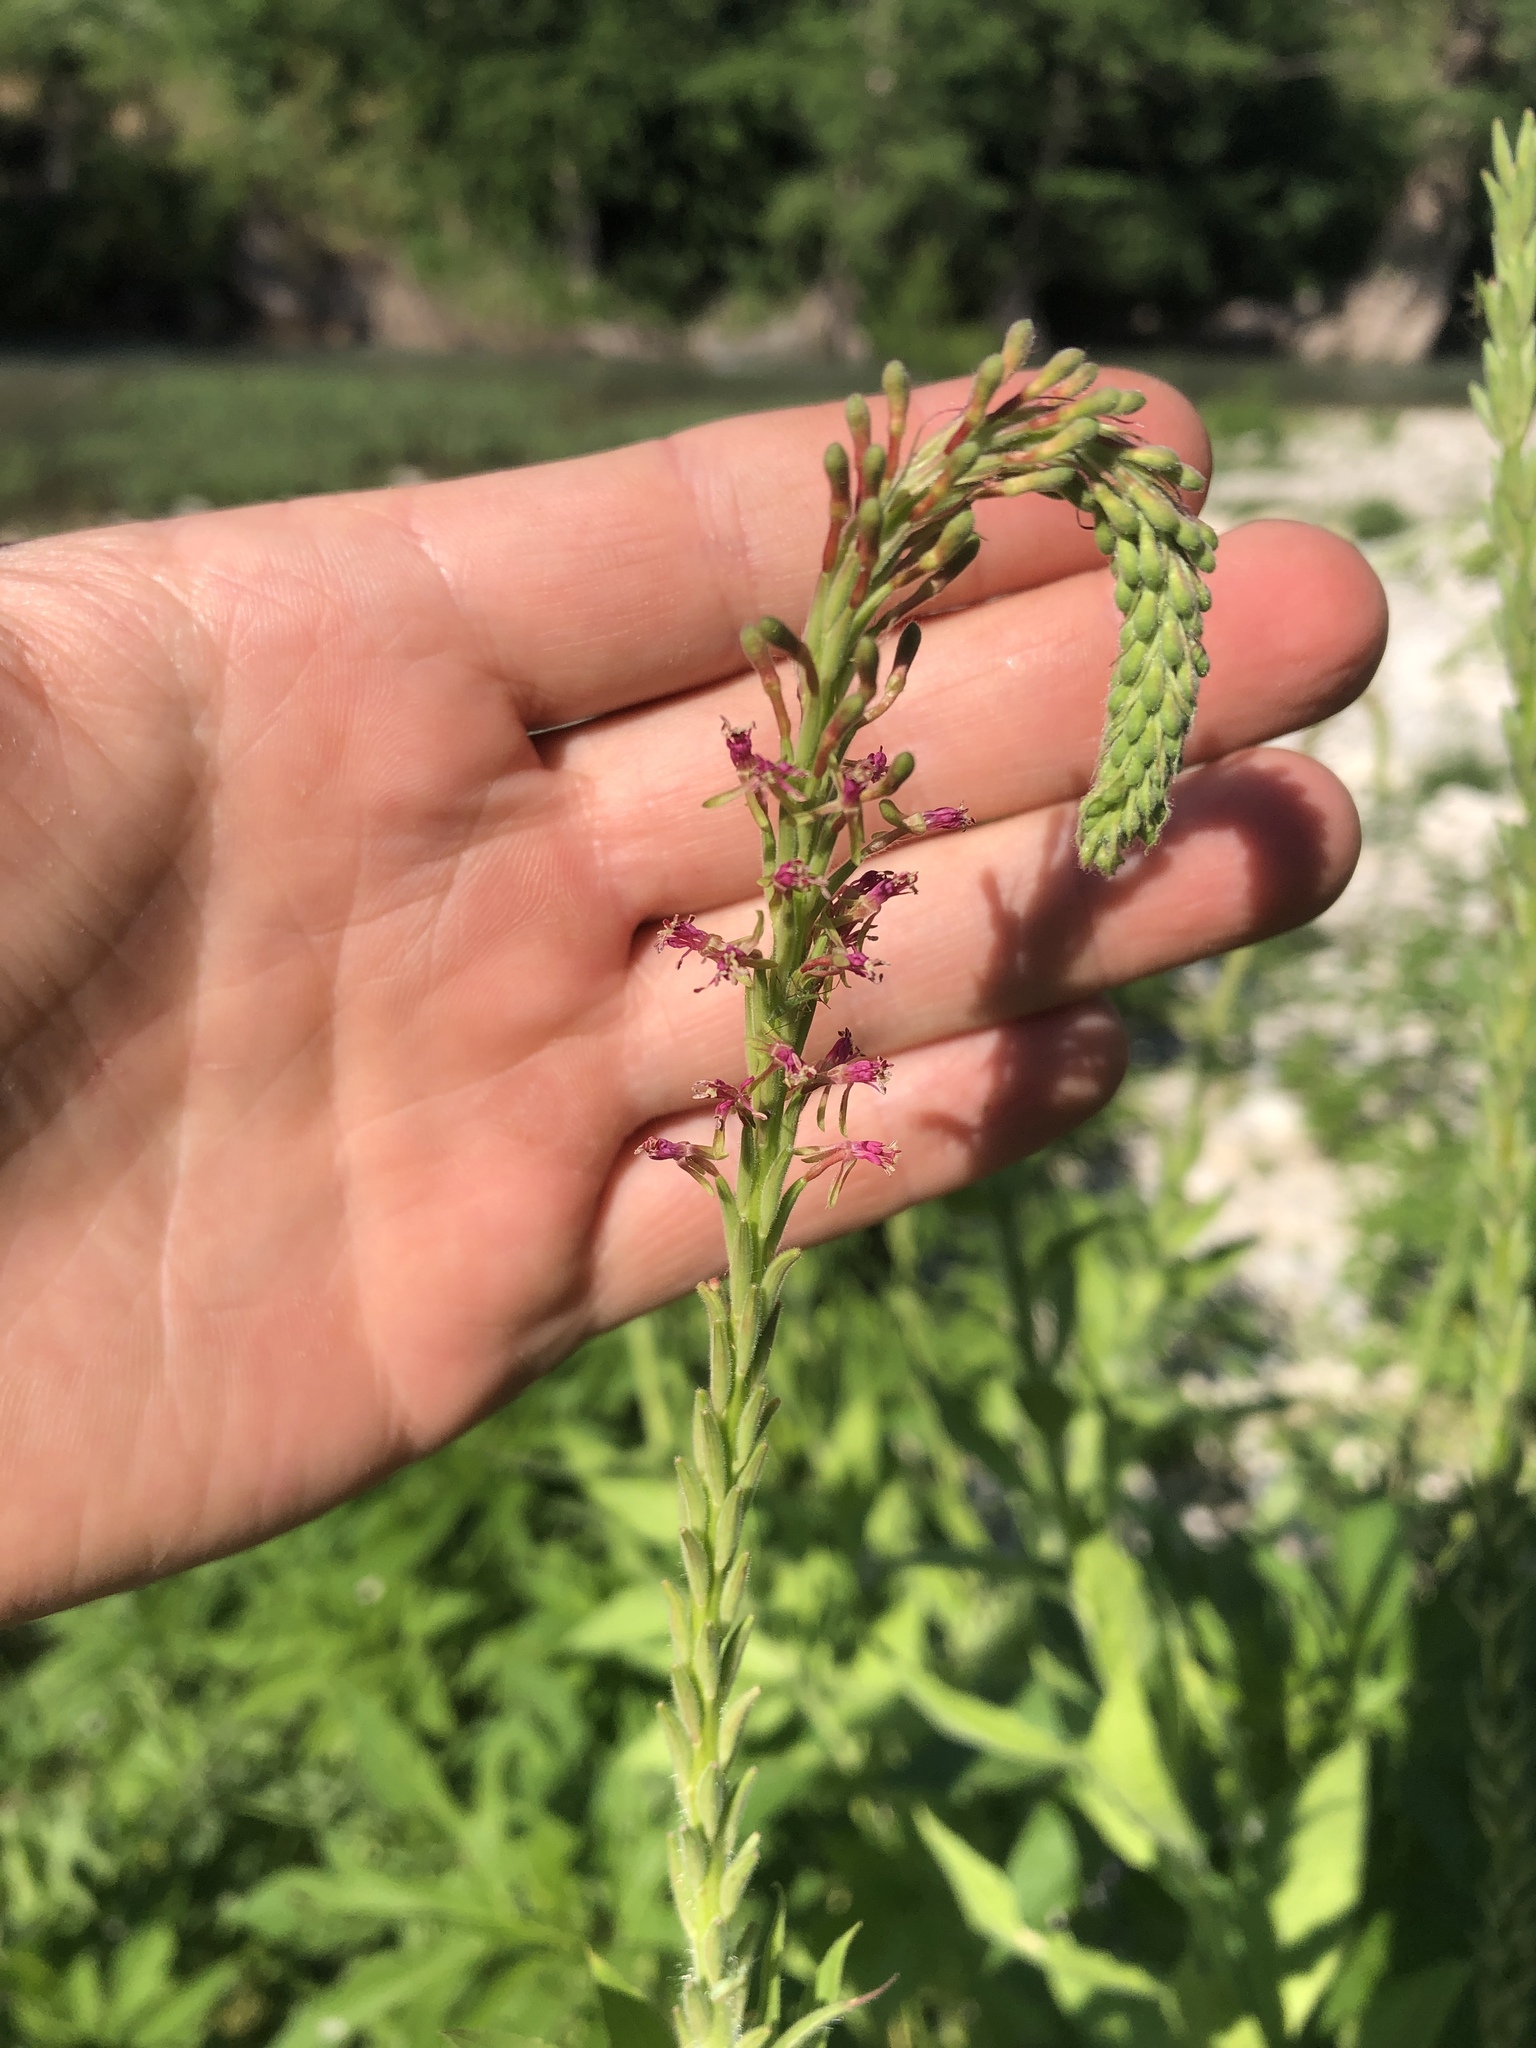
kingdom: Plantae
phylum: Tracheophyta
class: Magnoliopsida
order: Myrtales
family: Onagraceae
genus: Oenothera
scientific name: Oenothera curtiflora
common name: Velvetweed
